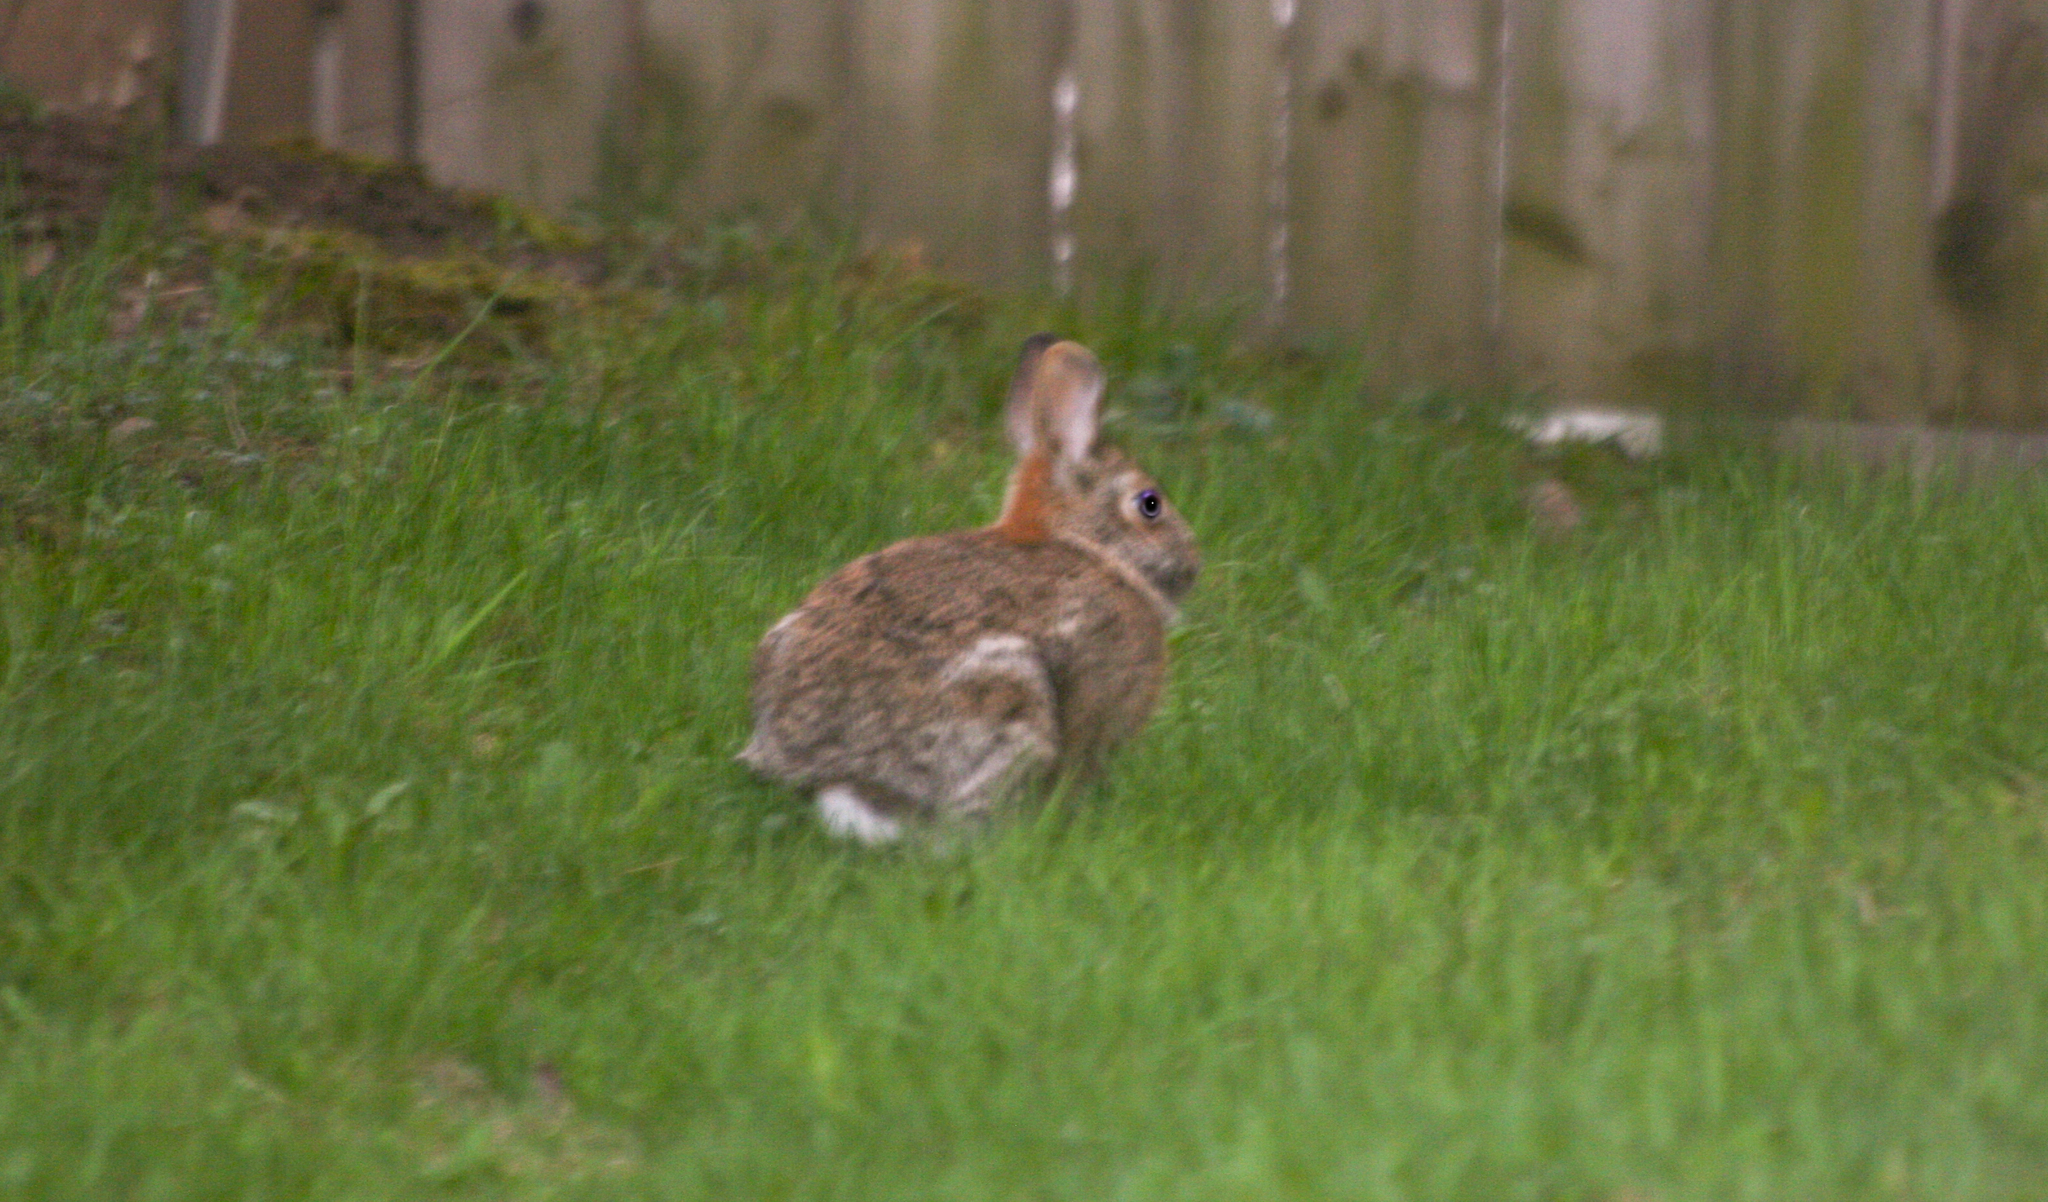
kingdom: Animalia
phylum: Chordata
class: Mammalia
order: Lagomorpha
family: Leporidae
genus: Sylvilagus
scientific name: Sylvilagus floridanus
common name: Eastern cottontail
